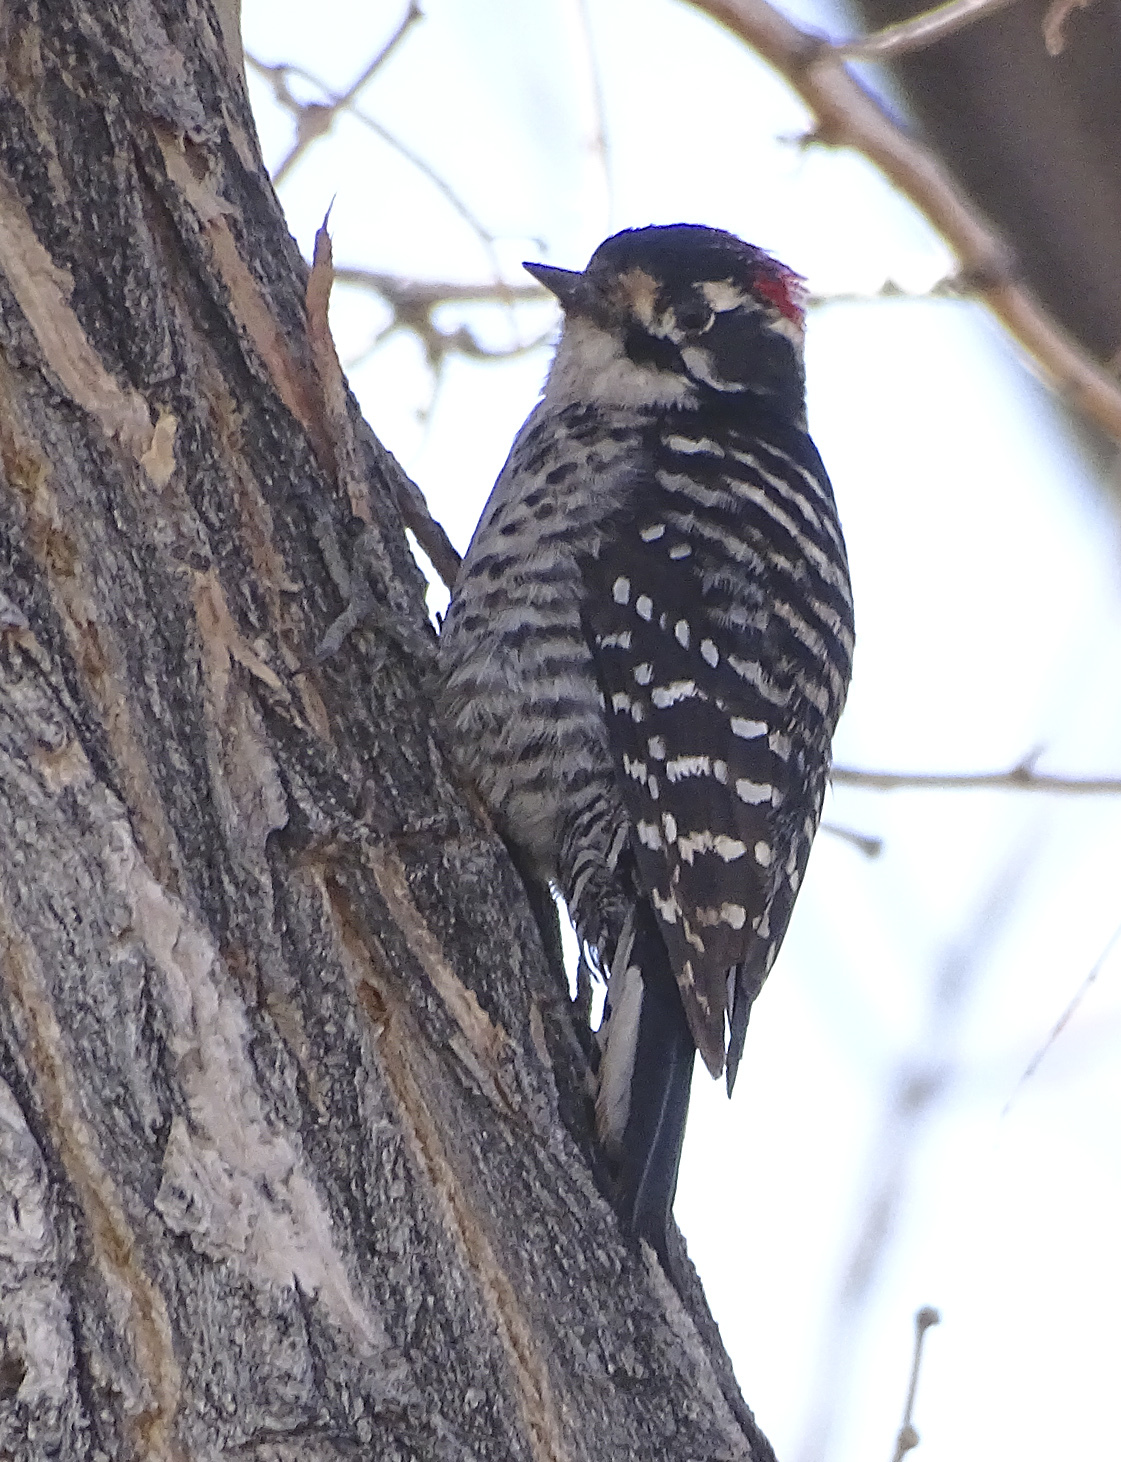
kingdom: Animalia
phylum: Chordata
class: Aves
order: Piciformes
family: Picidae
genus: Dryobates
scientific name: Dryobates nuttallii
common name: Nuttall's woodpecker
